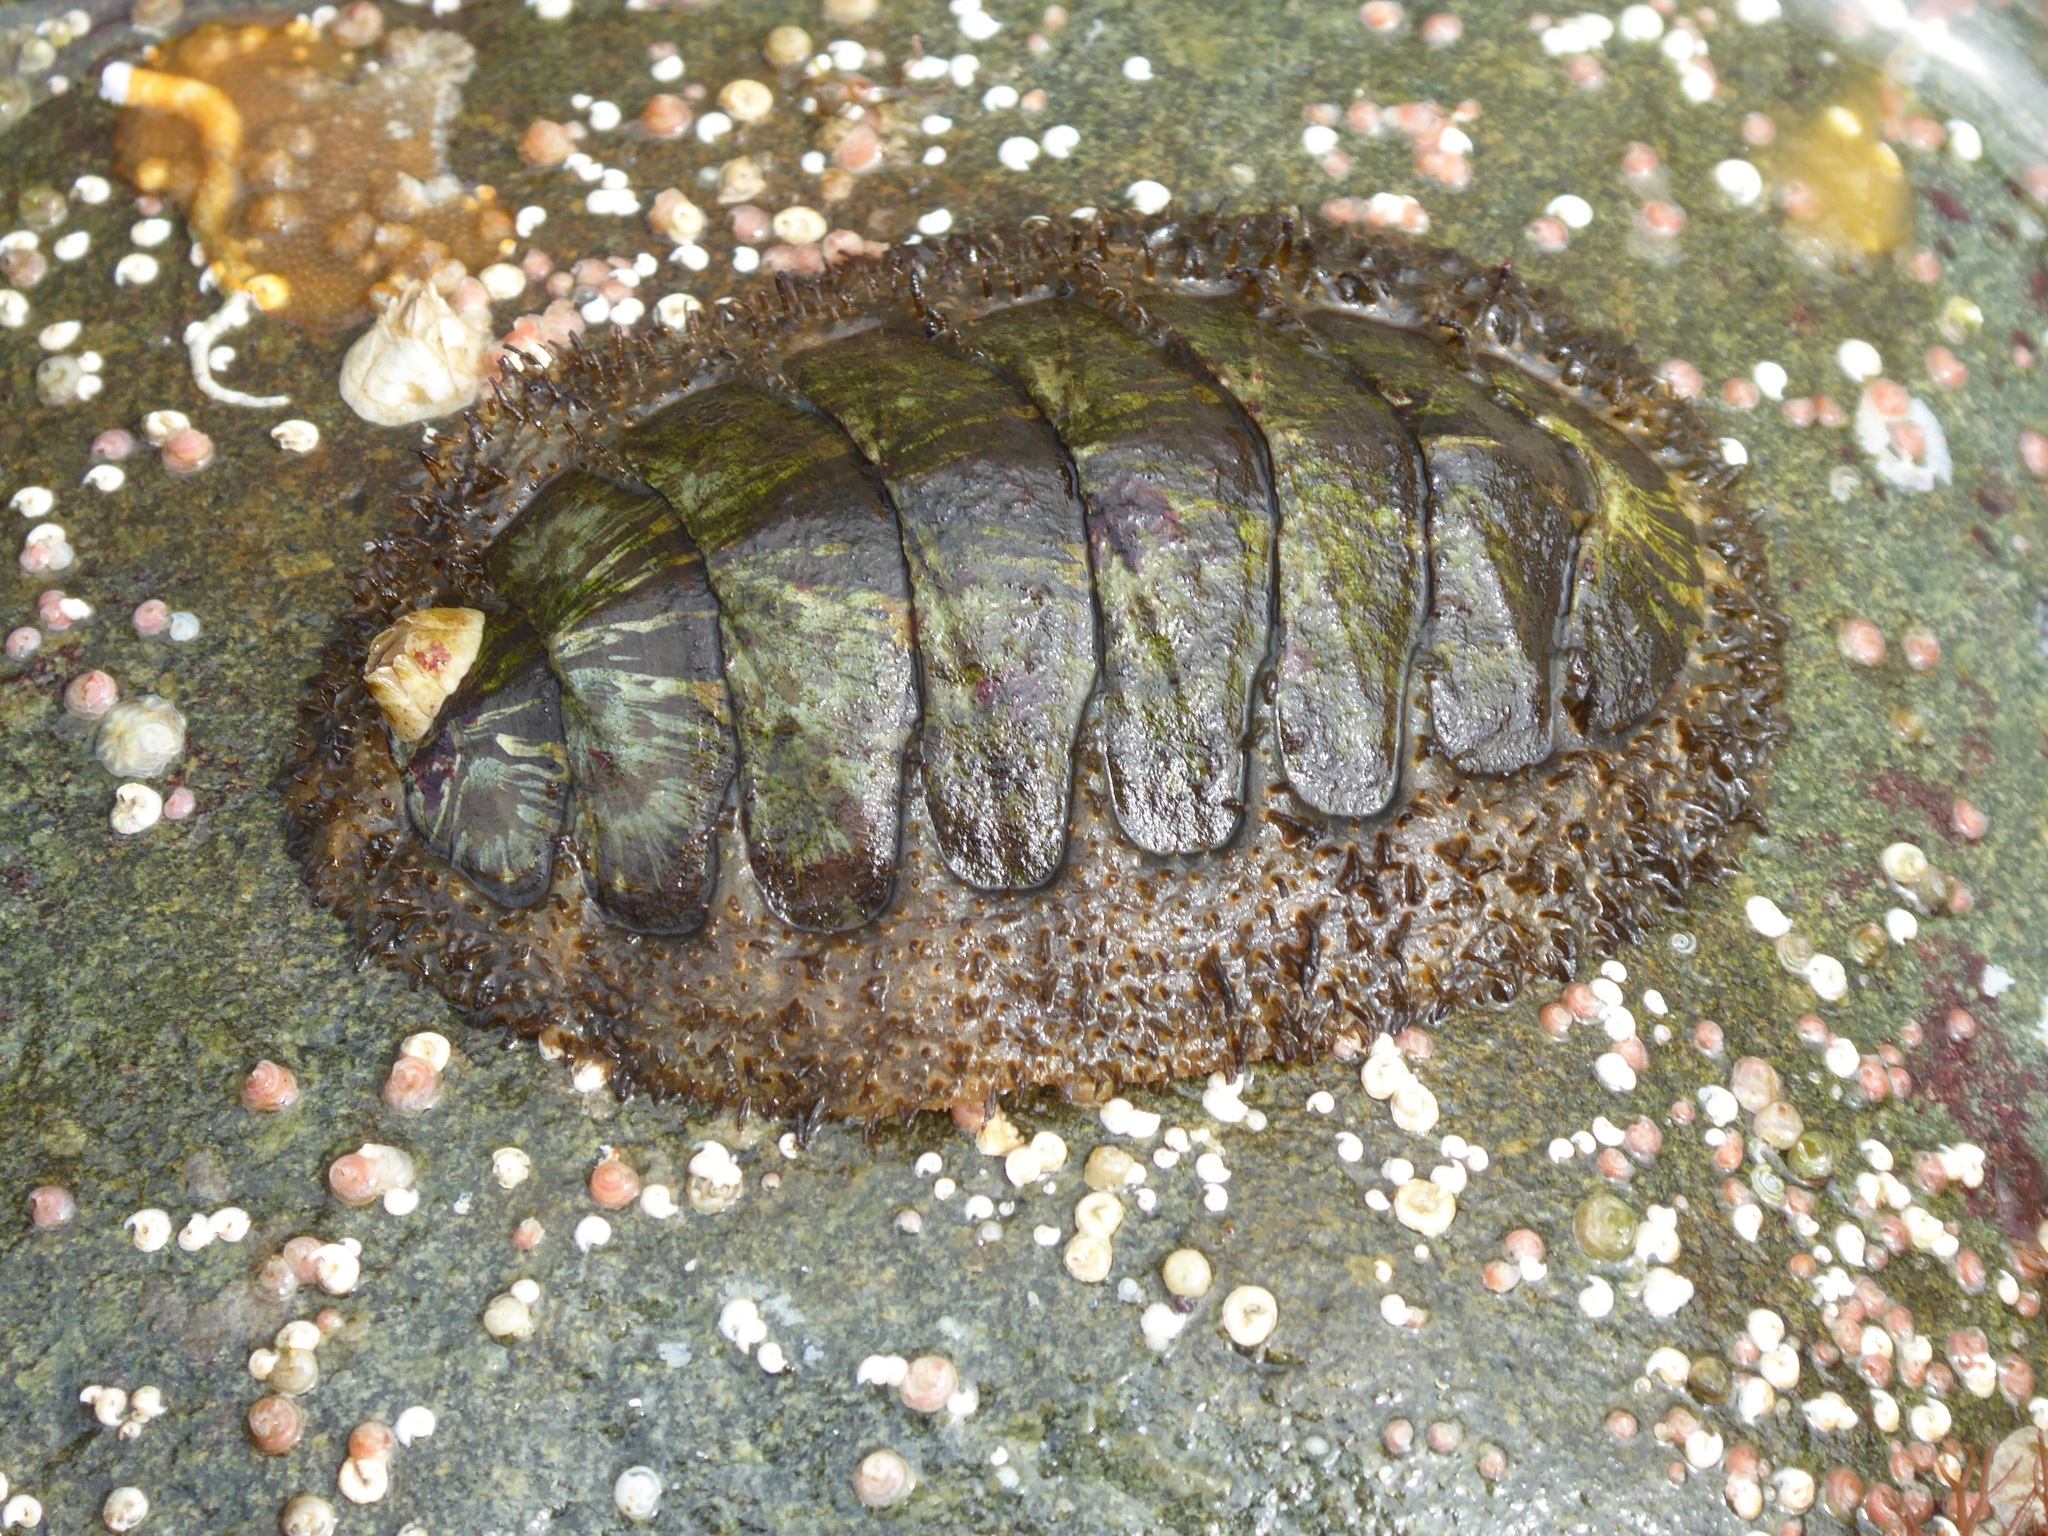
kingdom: Animalia
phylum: Mollusca
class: Polyplacophora
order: Chitonida
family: Mopaliidae
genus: Mopalia
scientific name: Mopalia lignosa
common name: Woody chiton
